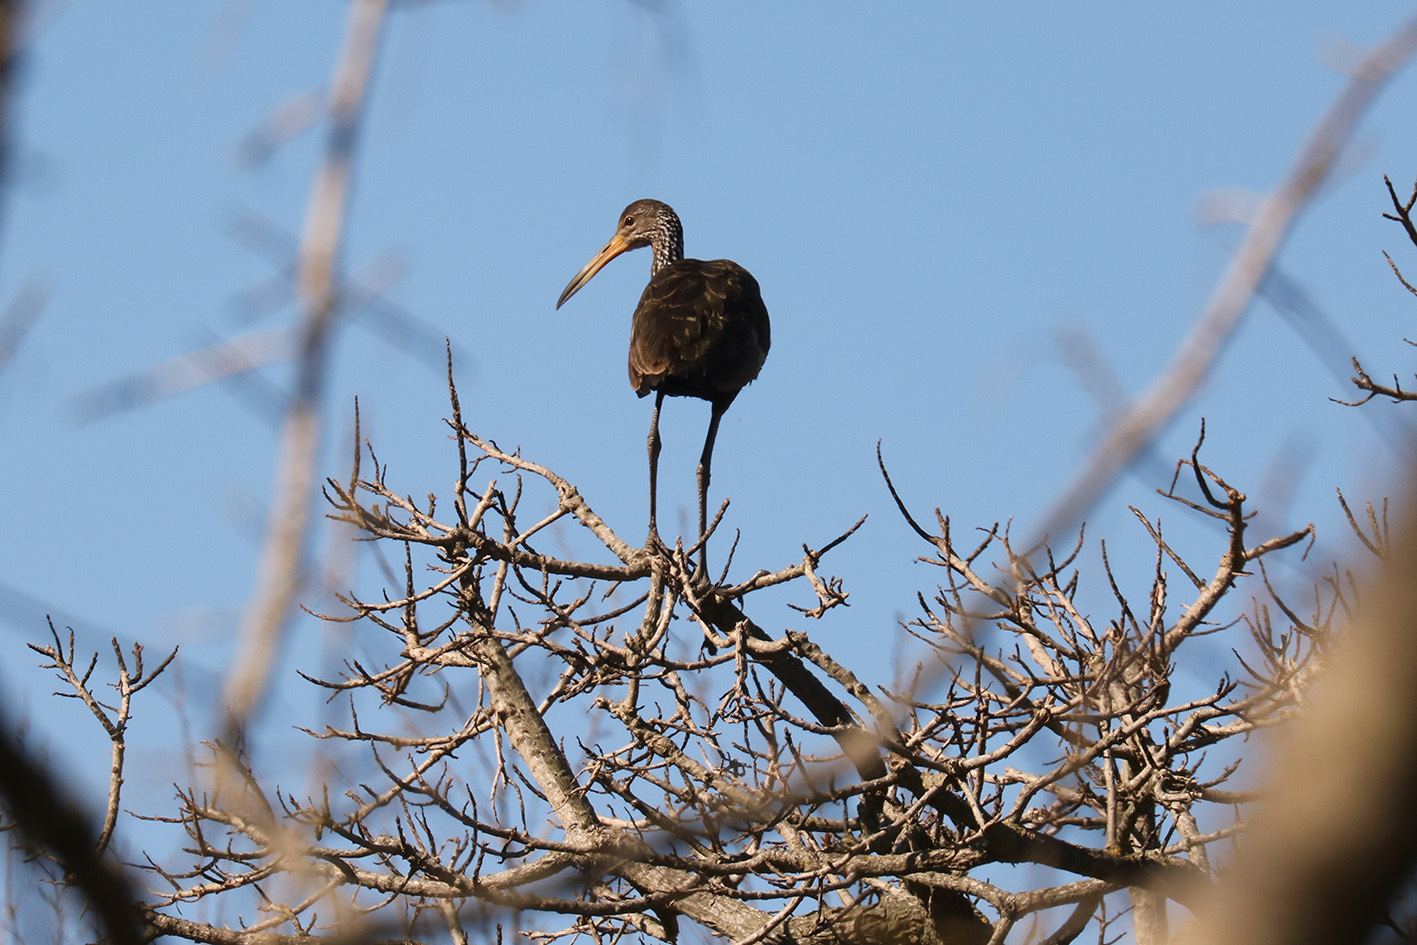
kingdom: Animalia
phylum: Chordata
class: Aves
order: Gruiformes
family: Aramidae
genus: Aramus
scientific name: Aramus guarauna
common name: Limpkin
